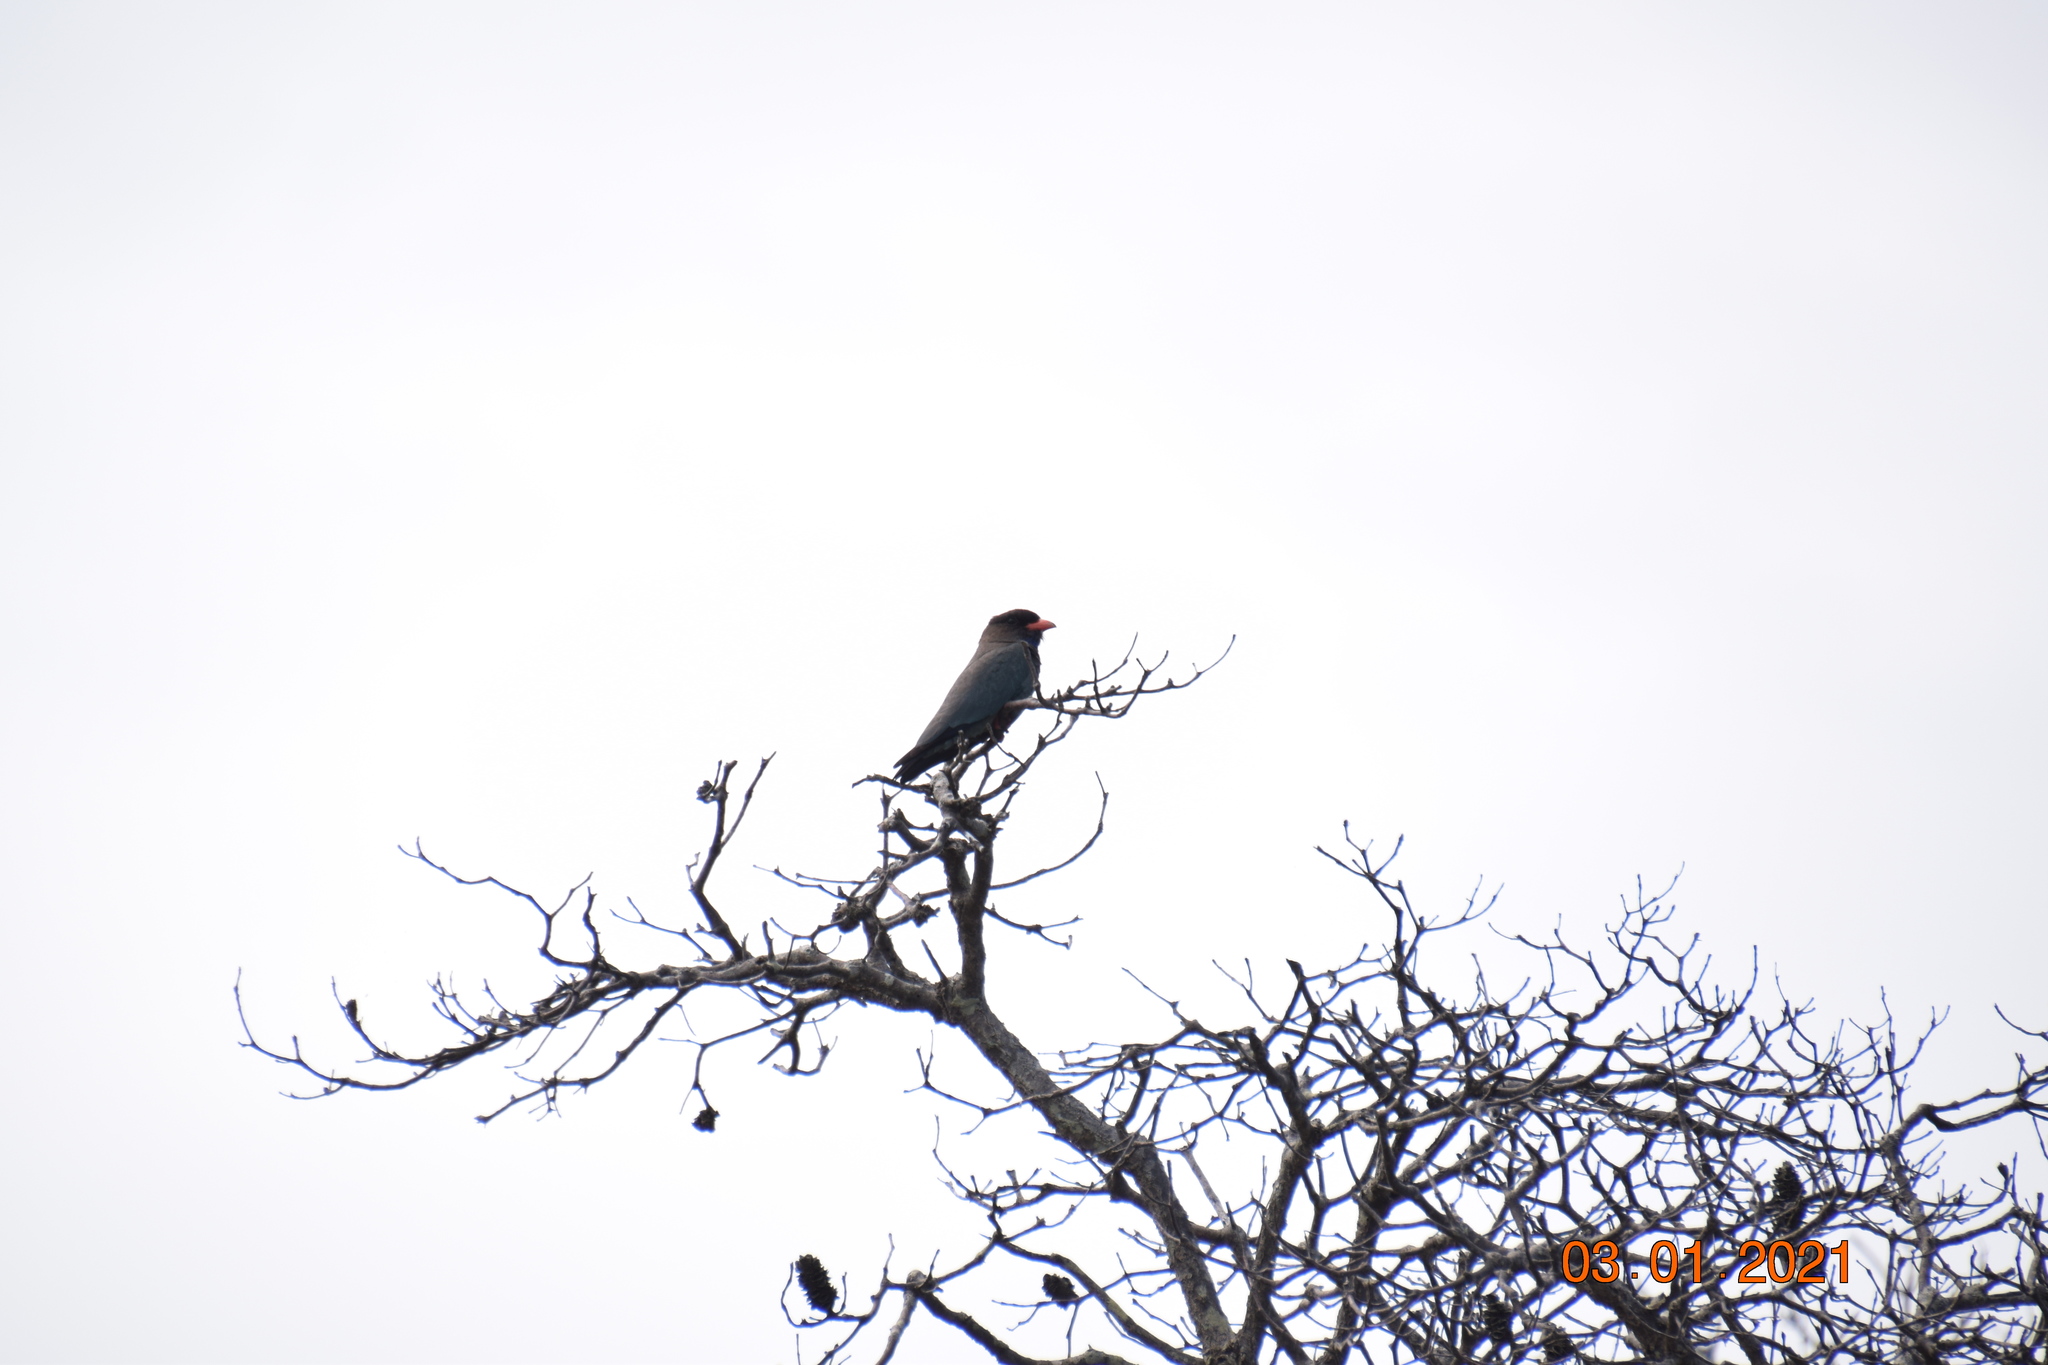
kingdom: Animalia
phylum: Chordata
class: Aves
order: Coraciiformes
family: Coraciidae
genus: Eurystomus
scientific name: Eurystomus orientalis
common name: Oriental dollarbird
